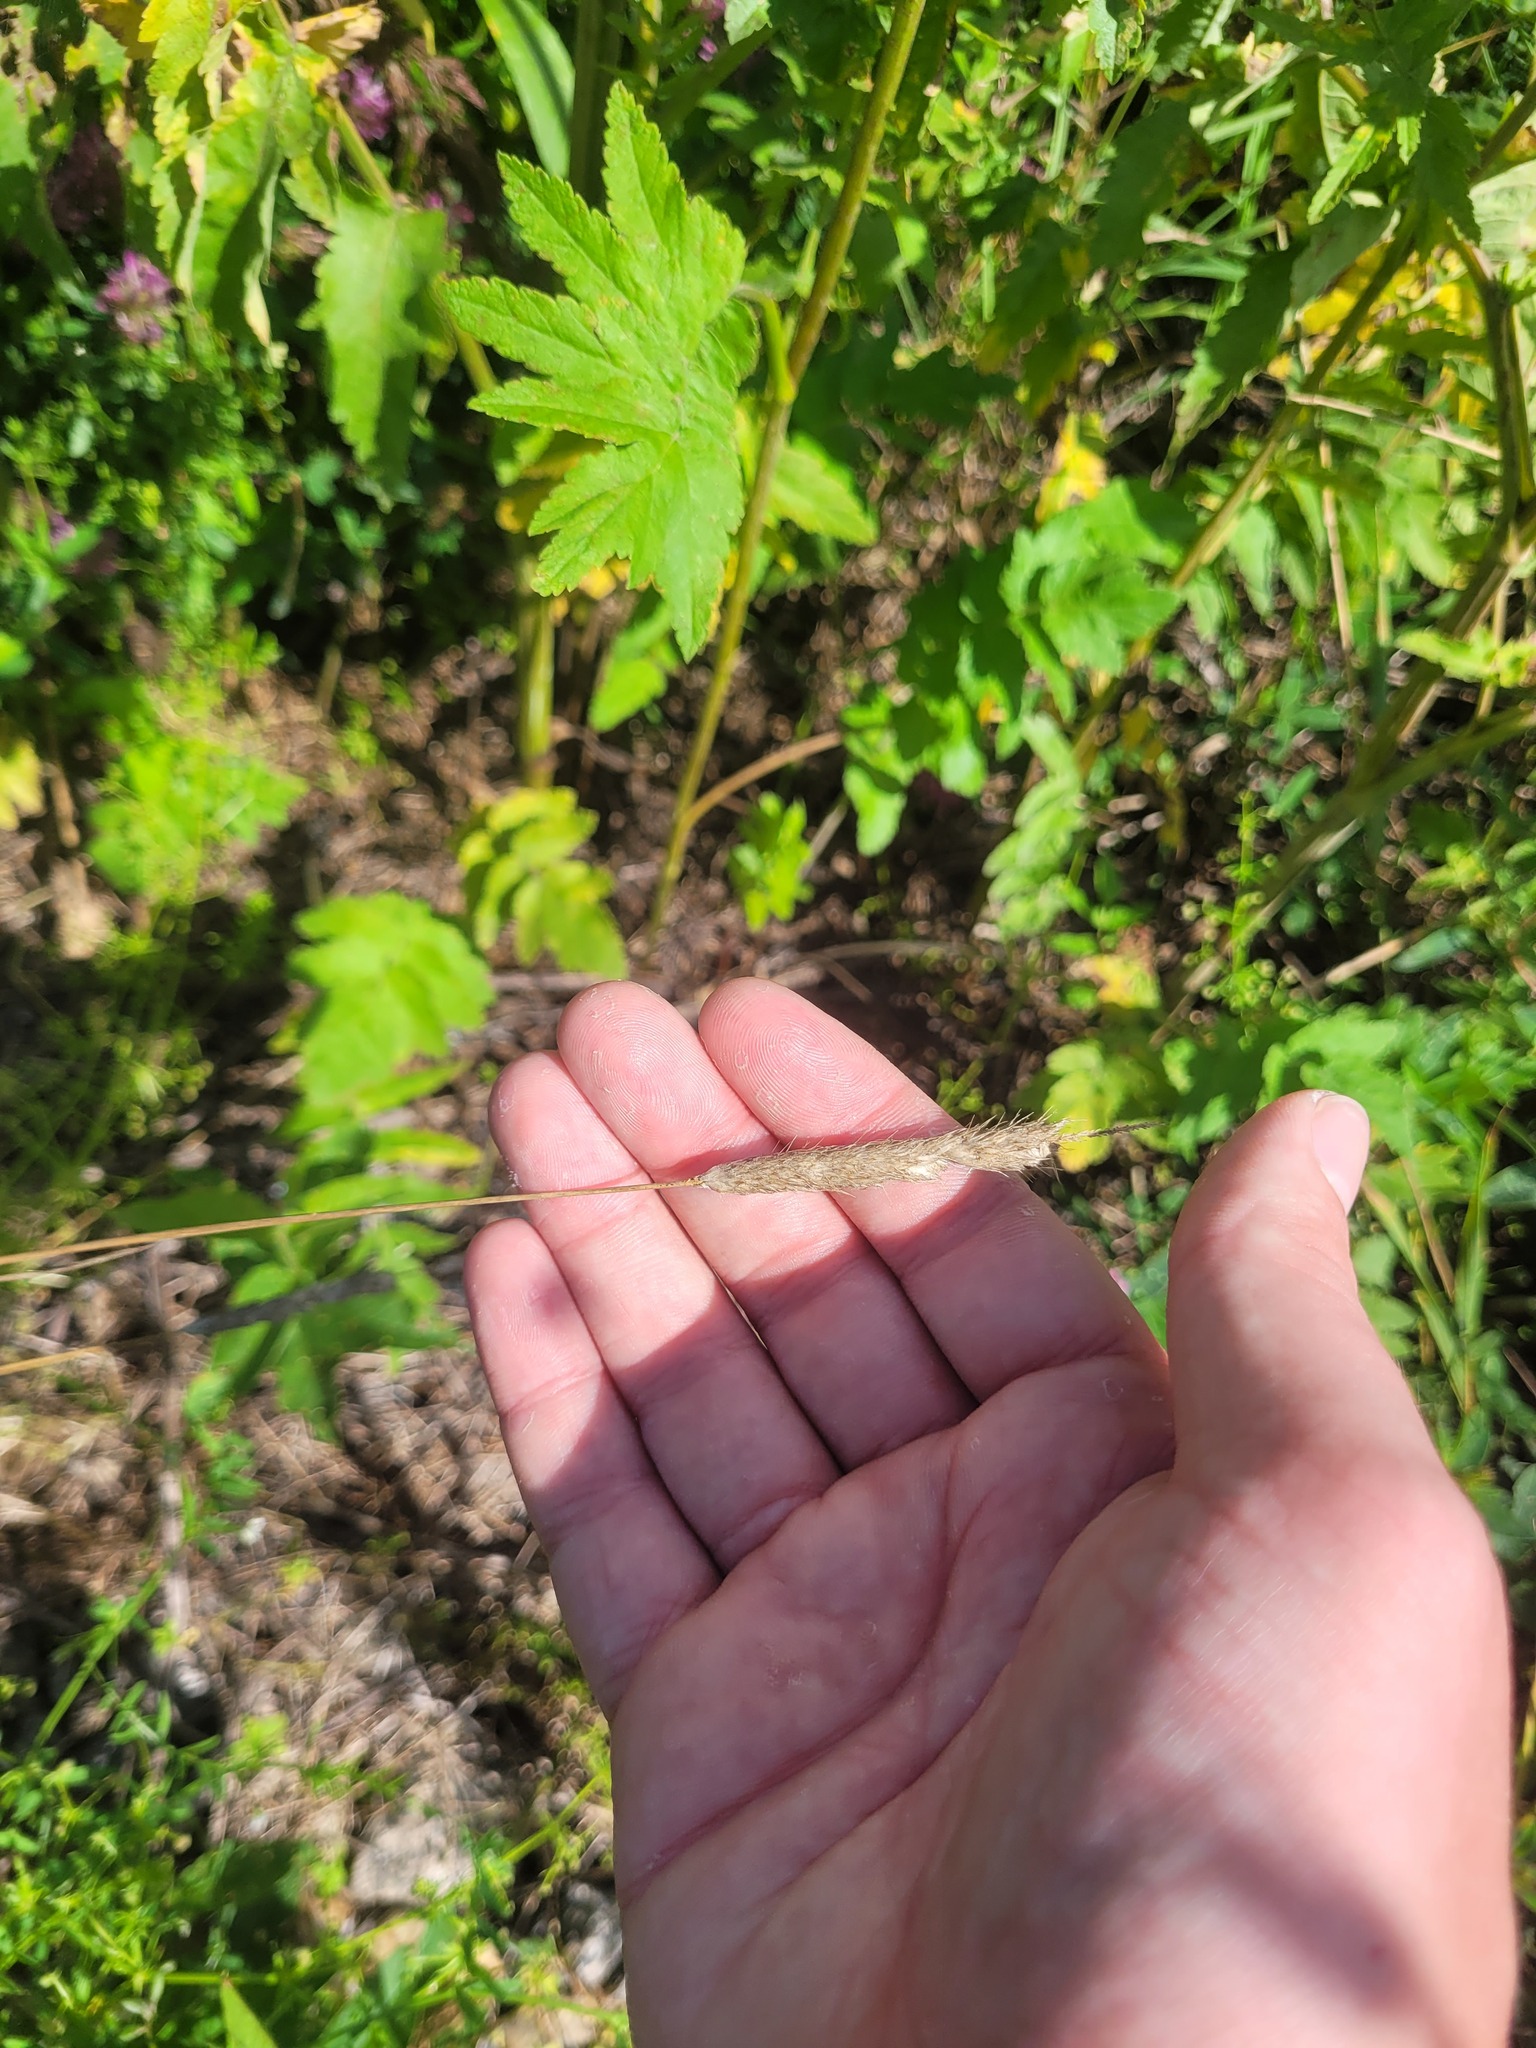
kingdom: Plantae
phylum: Tracheophyta
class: Liliopsida
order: Poales
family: Poaceae
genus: Alopecurus
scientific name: Alopecurus pratensis
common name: Meadow foxtail
